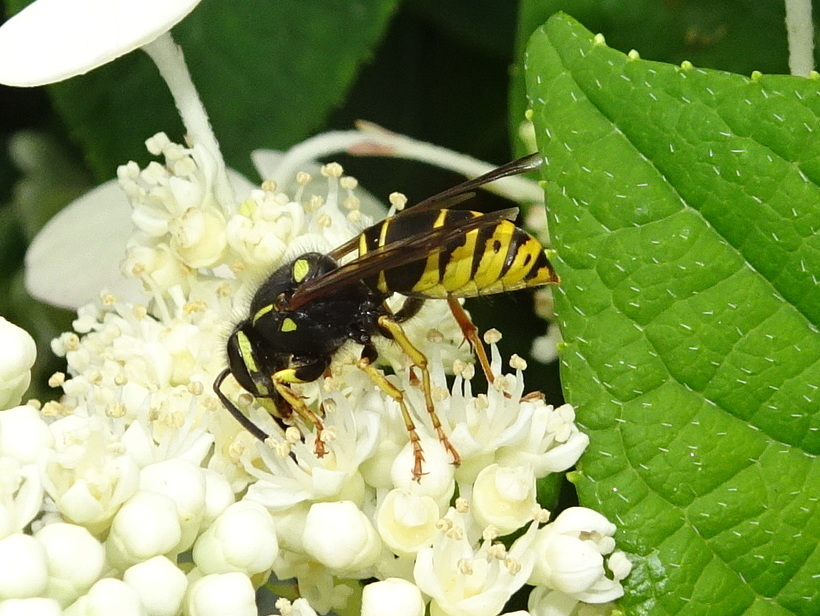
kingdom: Animalia
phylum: Arthropoda
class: Insecta
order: Hymenoptera
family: Vespidae
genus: Vespula
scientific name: Vespula vidua
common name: Widow yellowjacket
